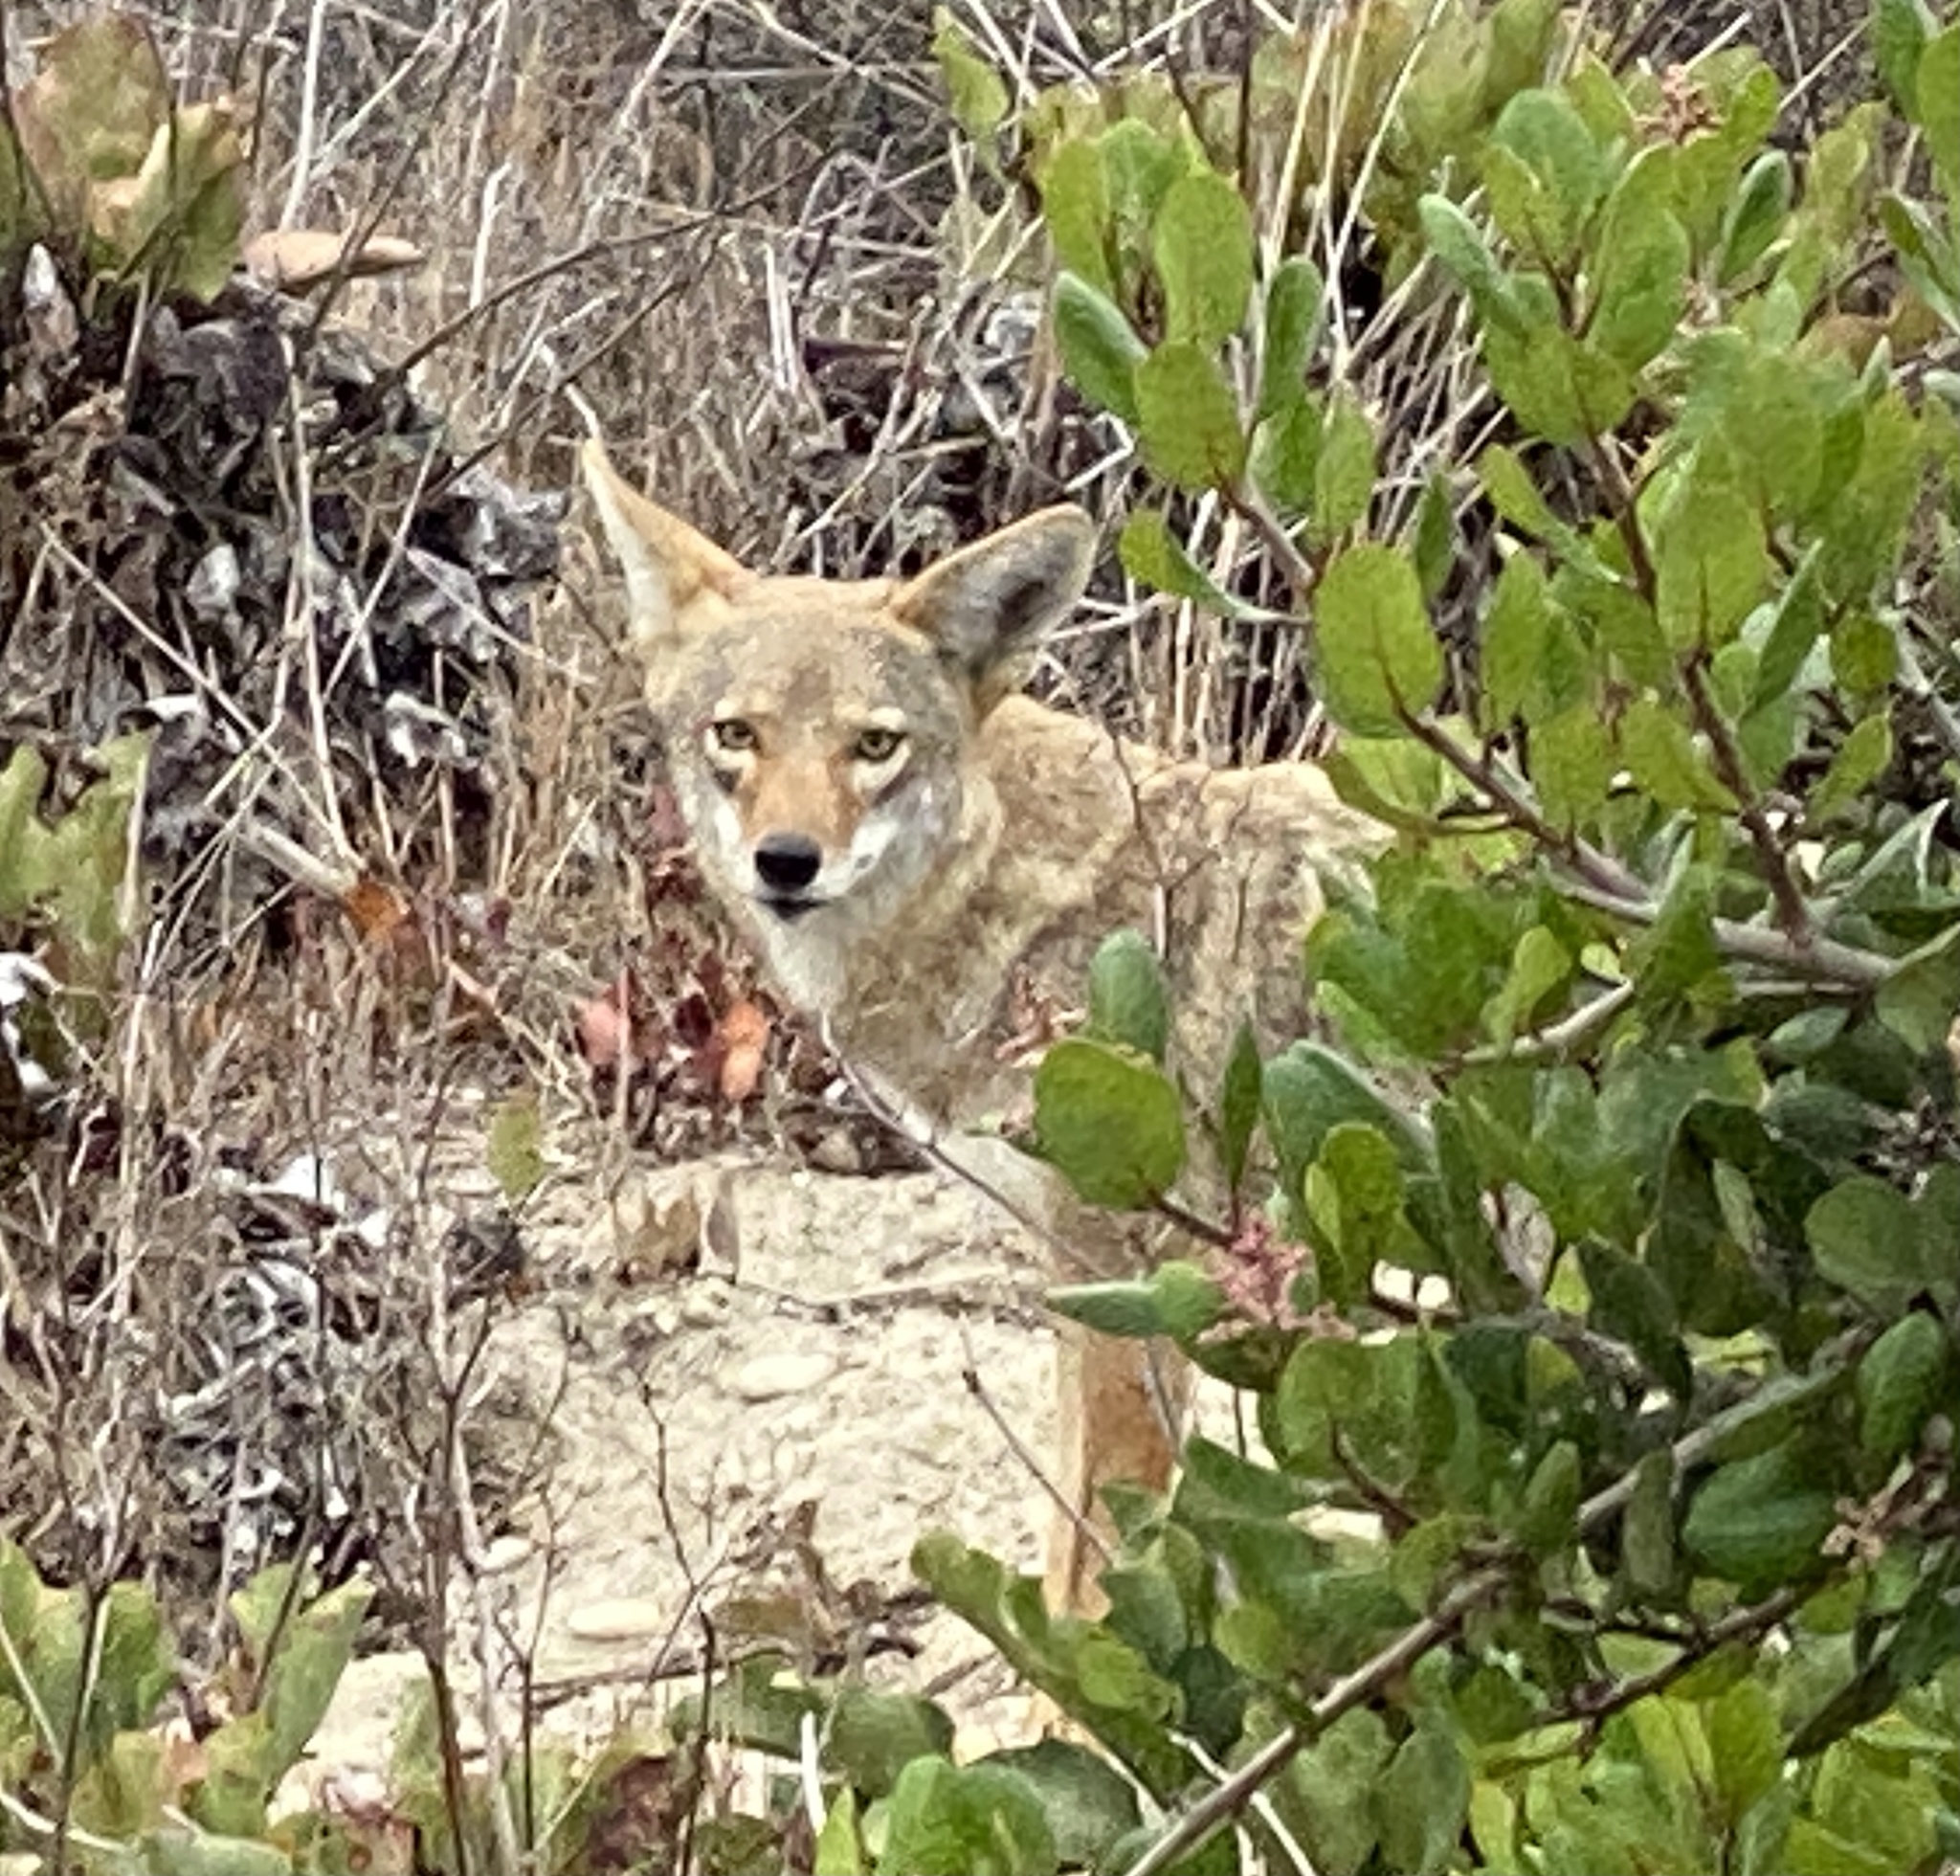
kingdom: Animalia
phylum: Chordata
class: Mammalia
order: Carnivora
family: Canidae
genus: Canis
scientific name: Canis latrans
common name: Coyote
